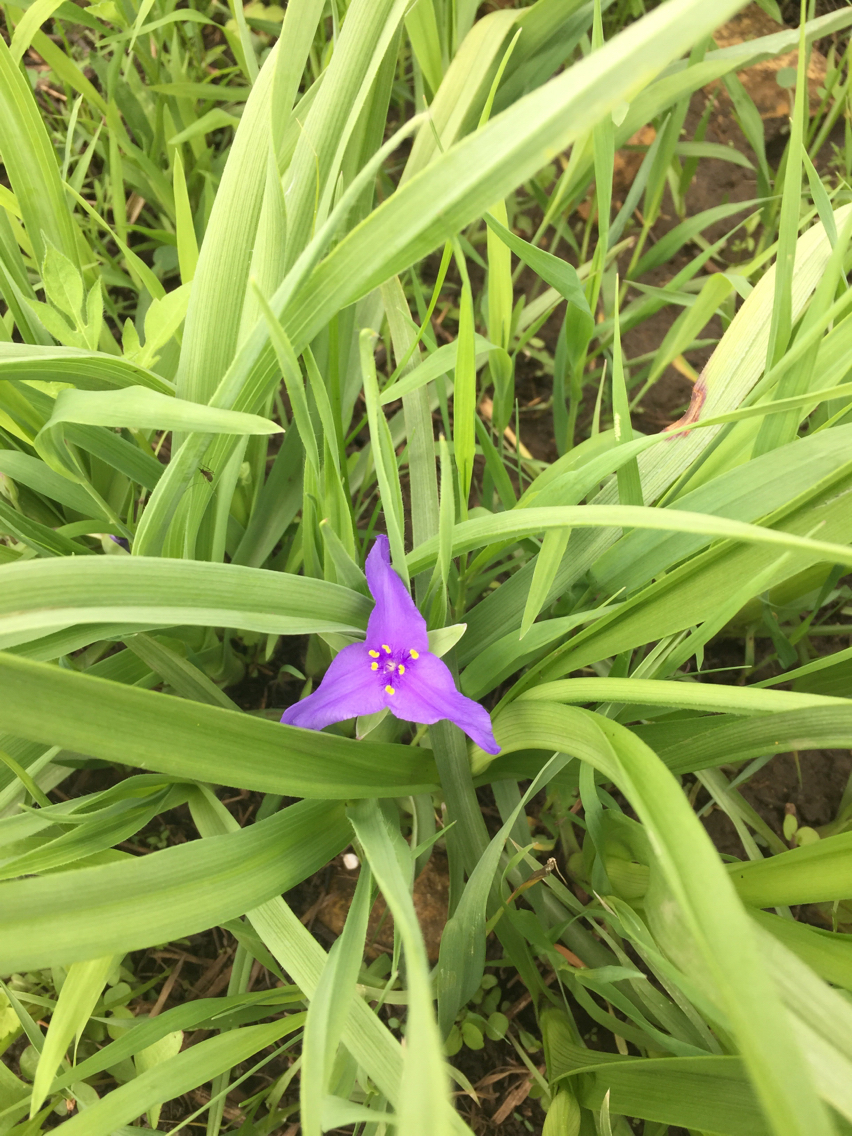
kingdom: Plantae
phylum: Tracheophyta
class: Liliopsida
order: Commelinales
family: Commelinaceae
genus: Tradescantia
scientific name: Tradescantia ohiensis
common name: Ohio spiderwort
